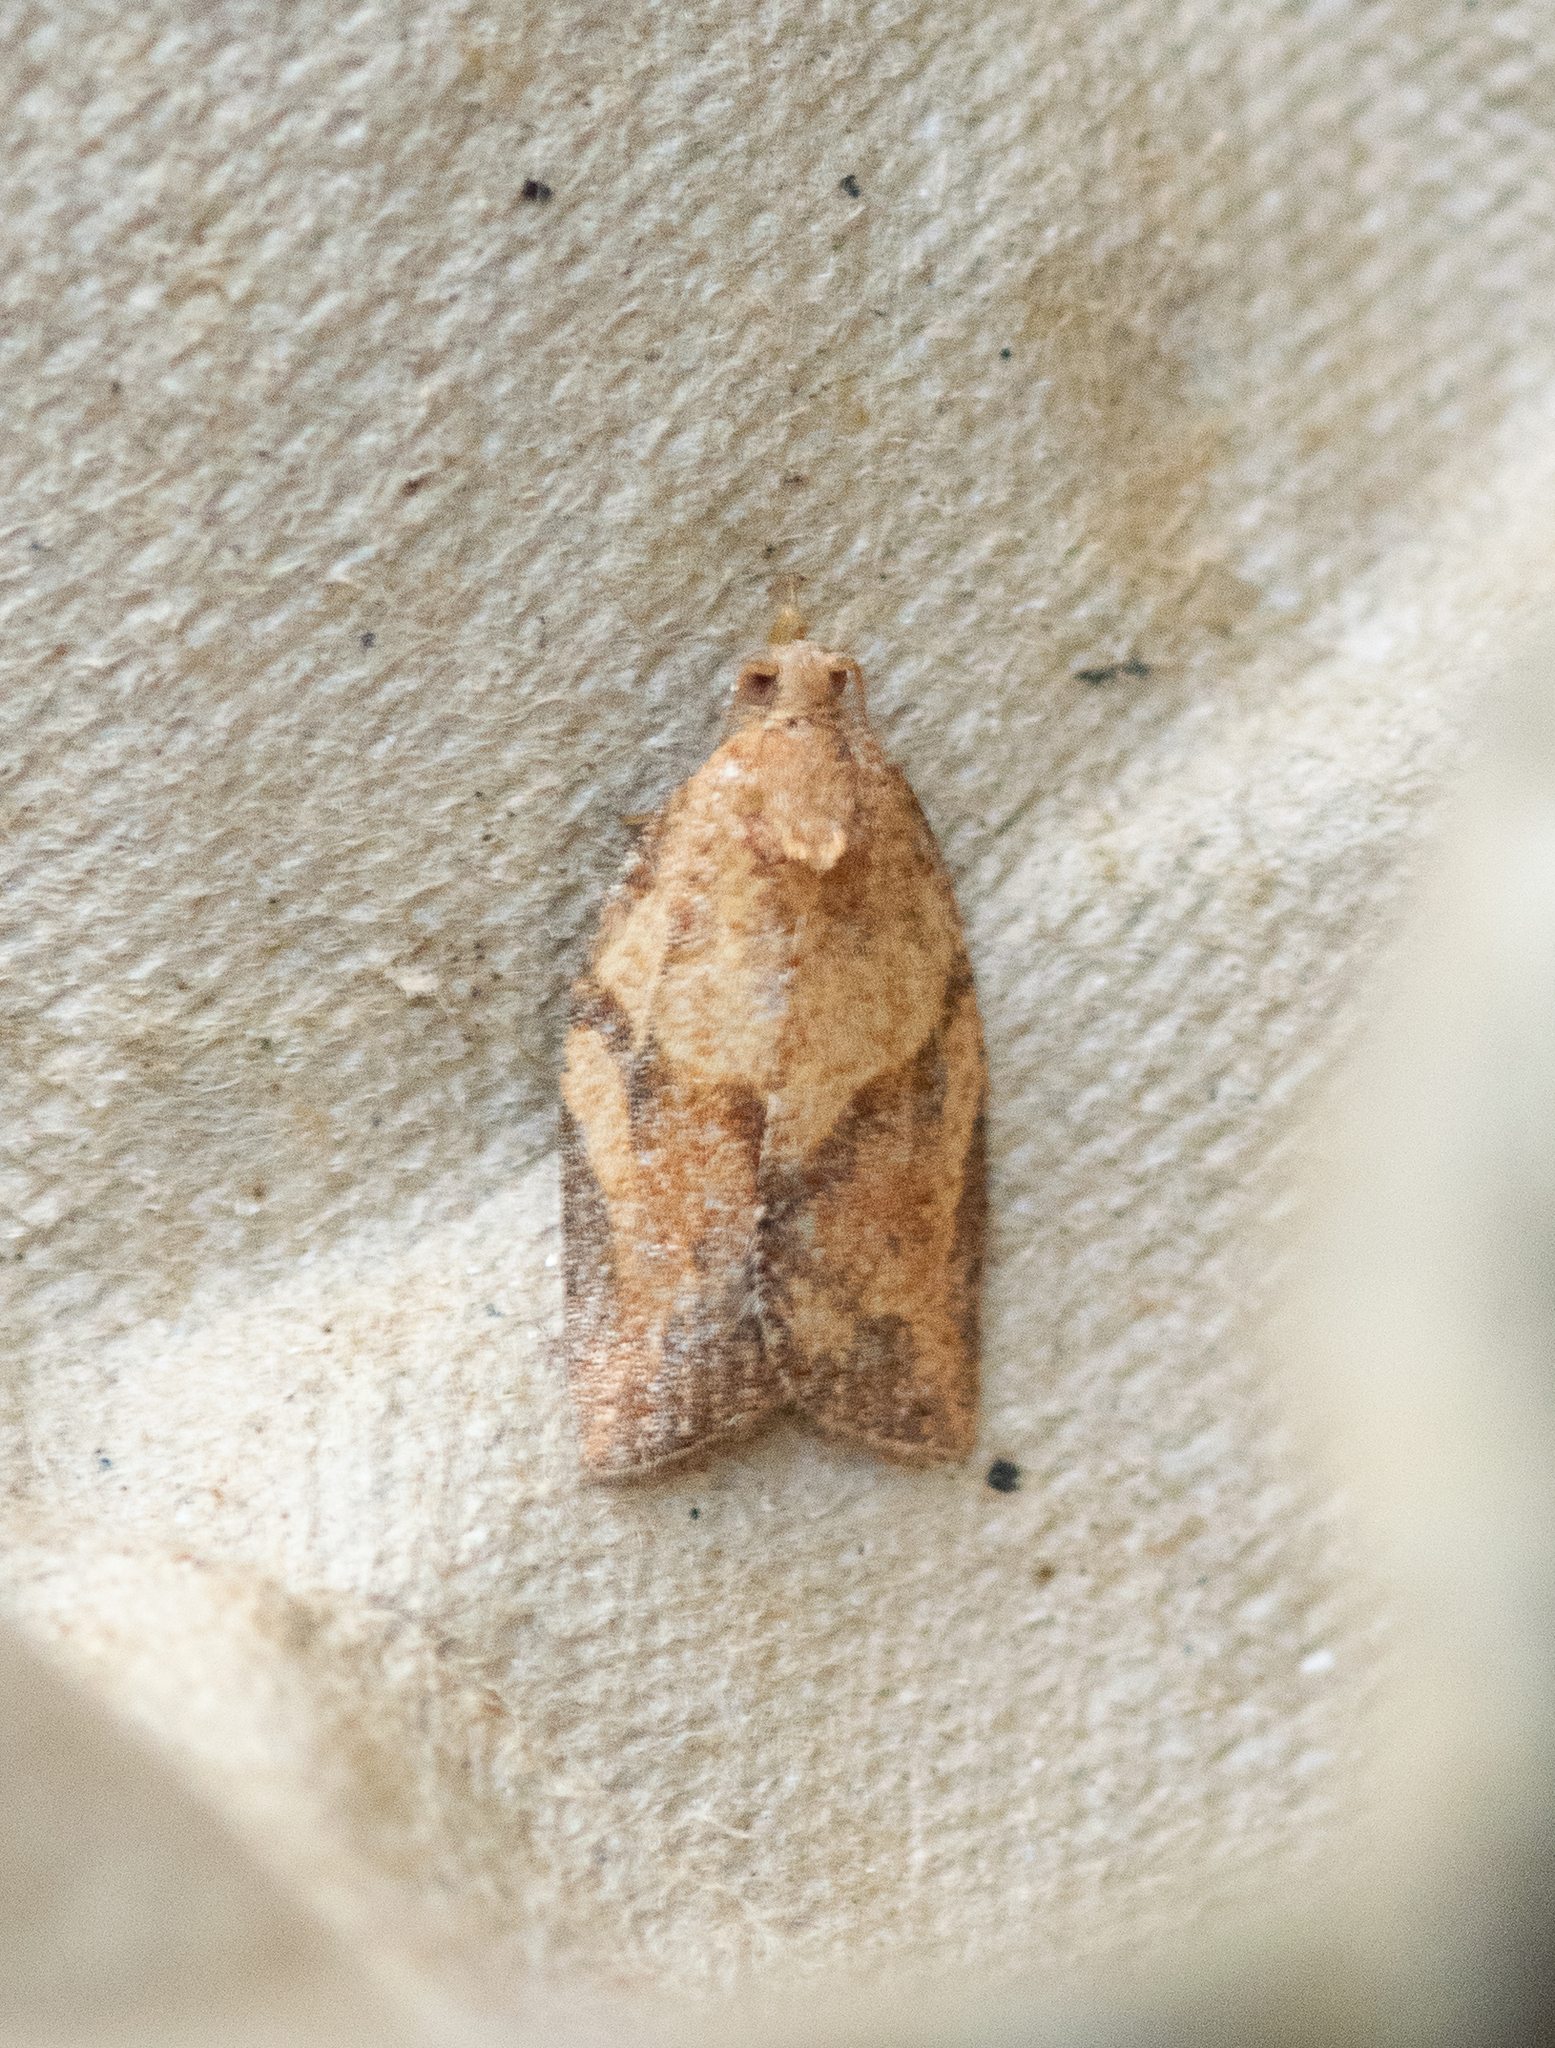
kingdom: Animalia
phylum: Arthropoda
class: Insecta
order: Lepidoptera
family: Tortricidae
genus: Epiphyas
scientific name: Epiphyas postvittana
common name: Light brown apple moth
